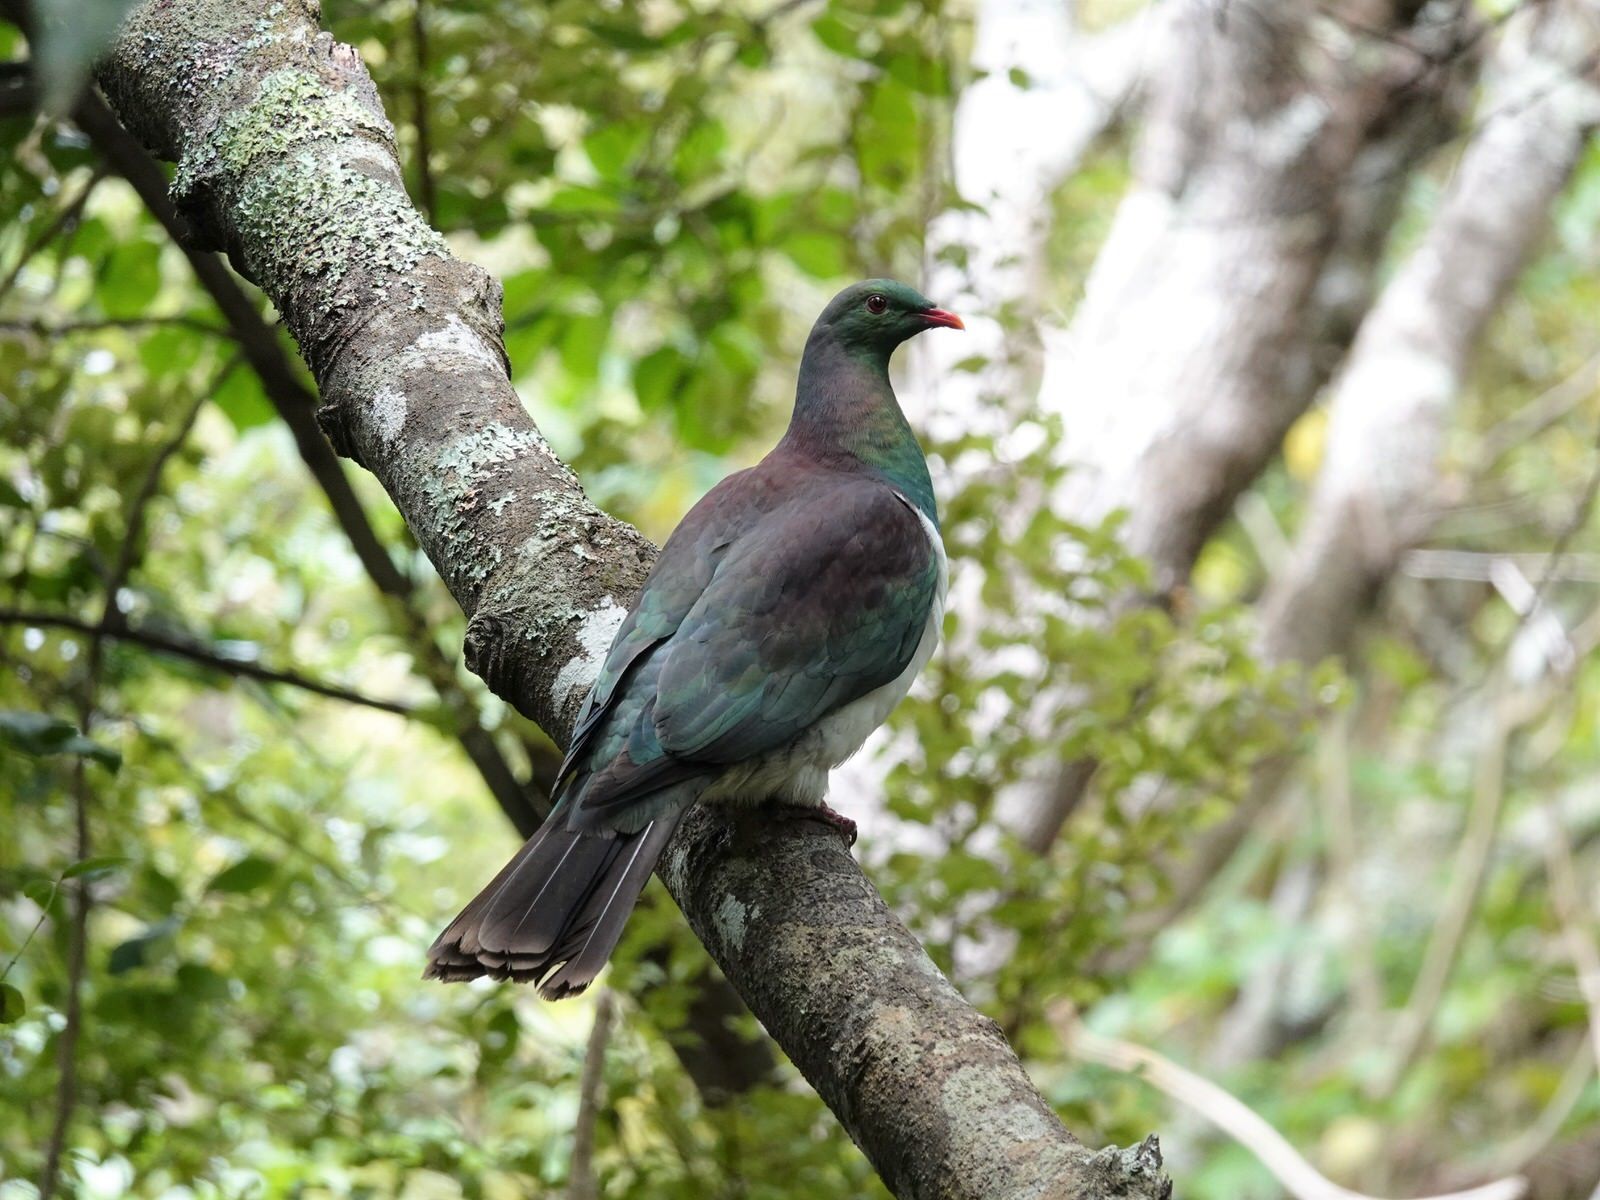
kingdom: Animalia
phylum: Chordata
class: Aves
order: Columbiformes
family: Columbidae
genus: Hemiphaga
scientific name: Hemiphaga novaeseelandiae
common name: New zealand pigeon
